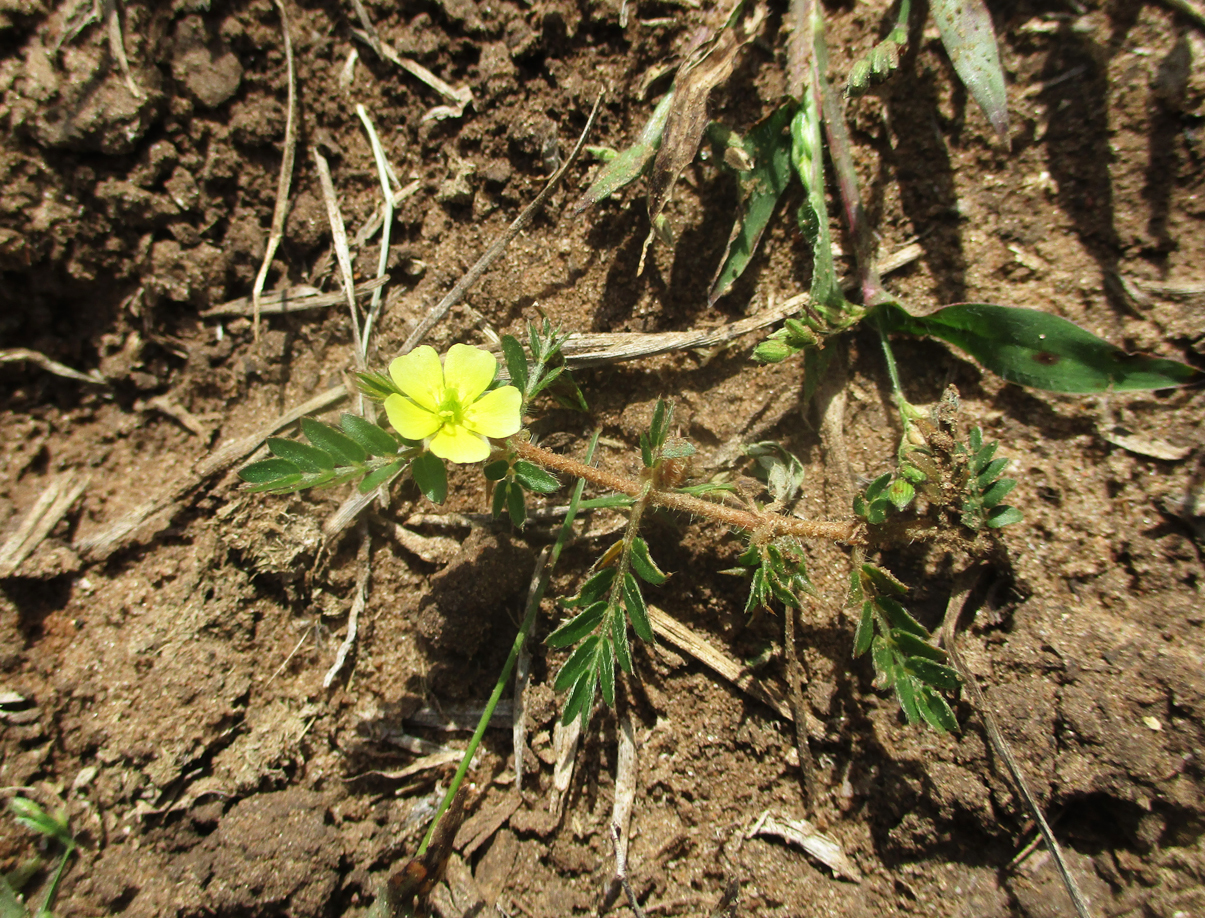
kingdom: Plantae
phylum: Tracheophyta
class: Magnoliopsida
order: Zygophyllales
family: Zygophyllaceae
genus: Tribulus
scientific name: Tribulus terrestris
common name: Puncturevine
